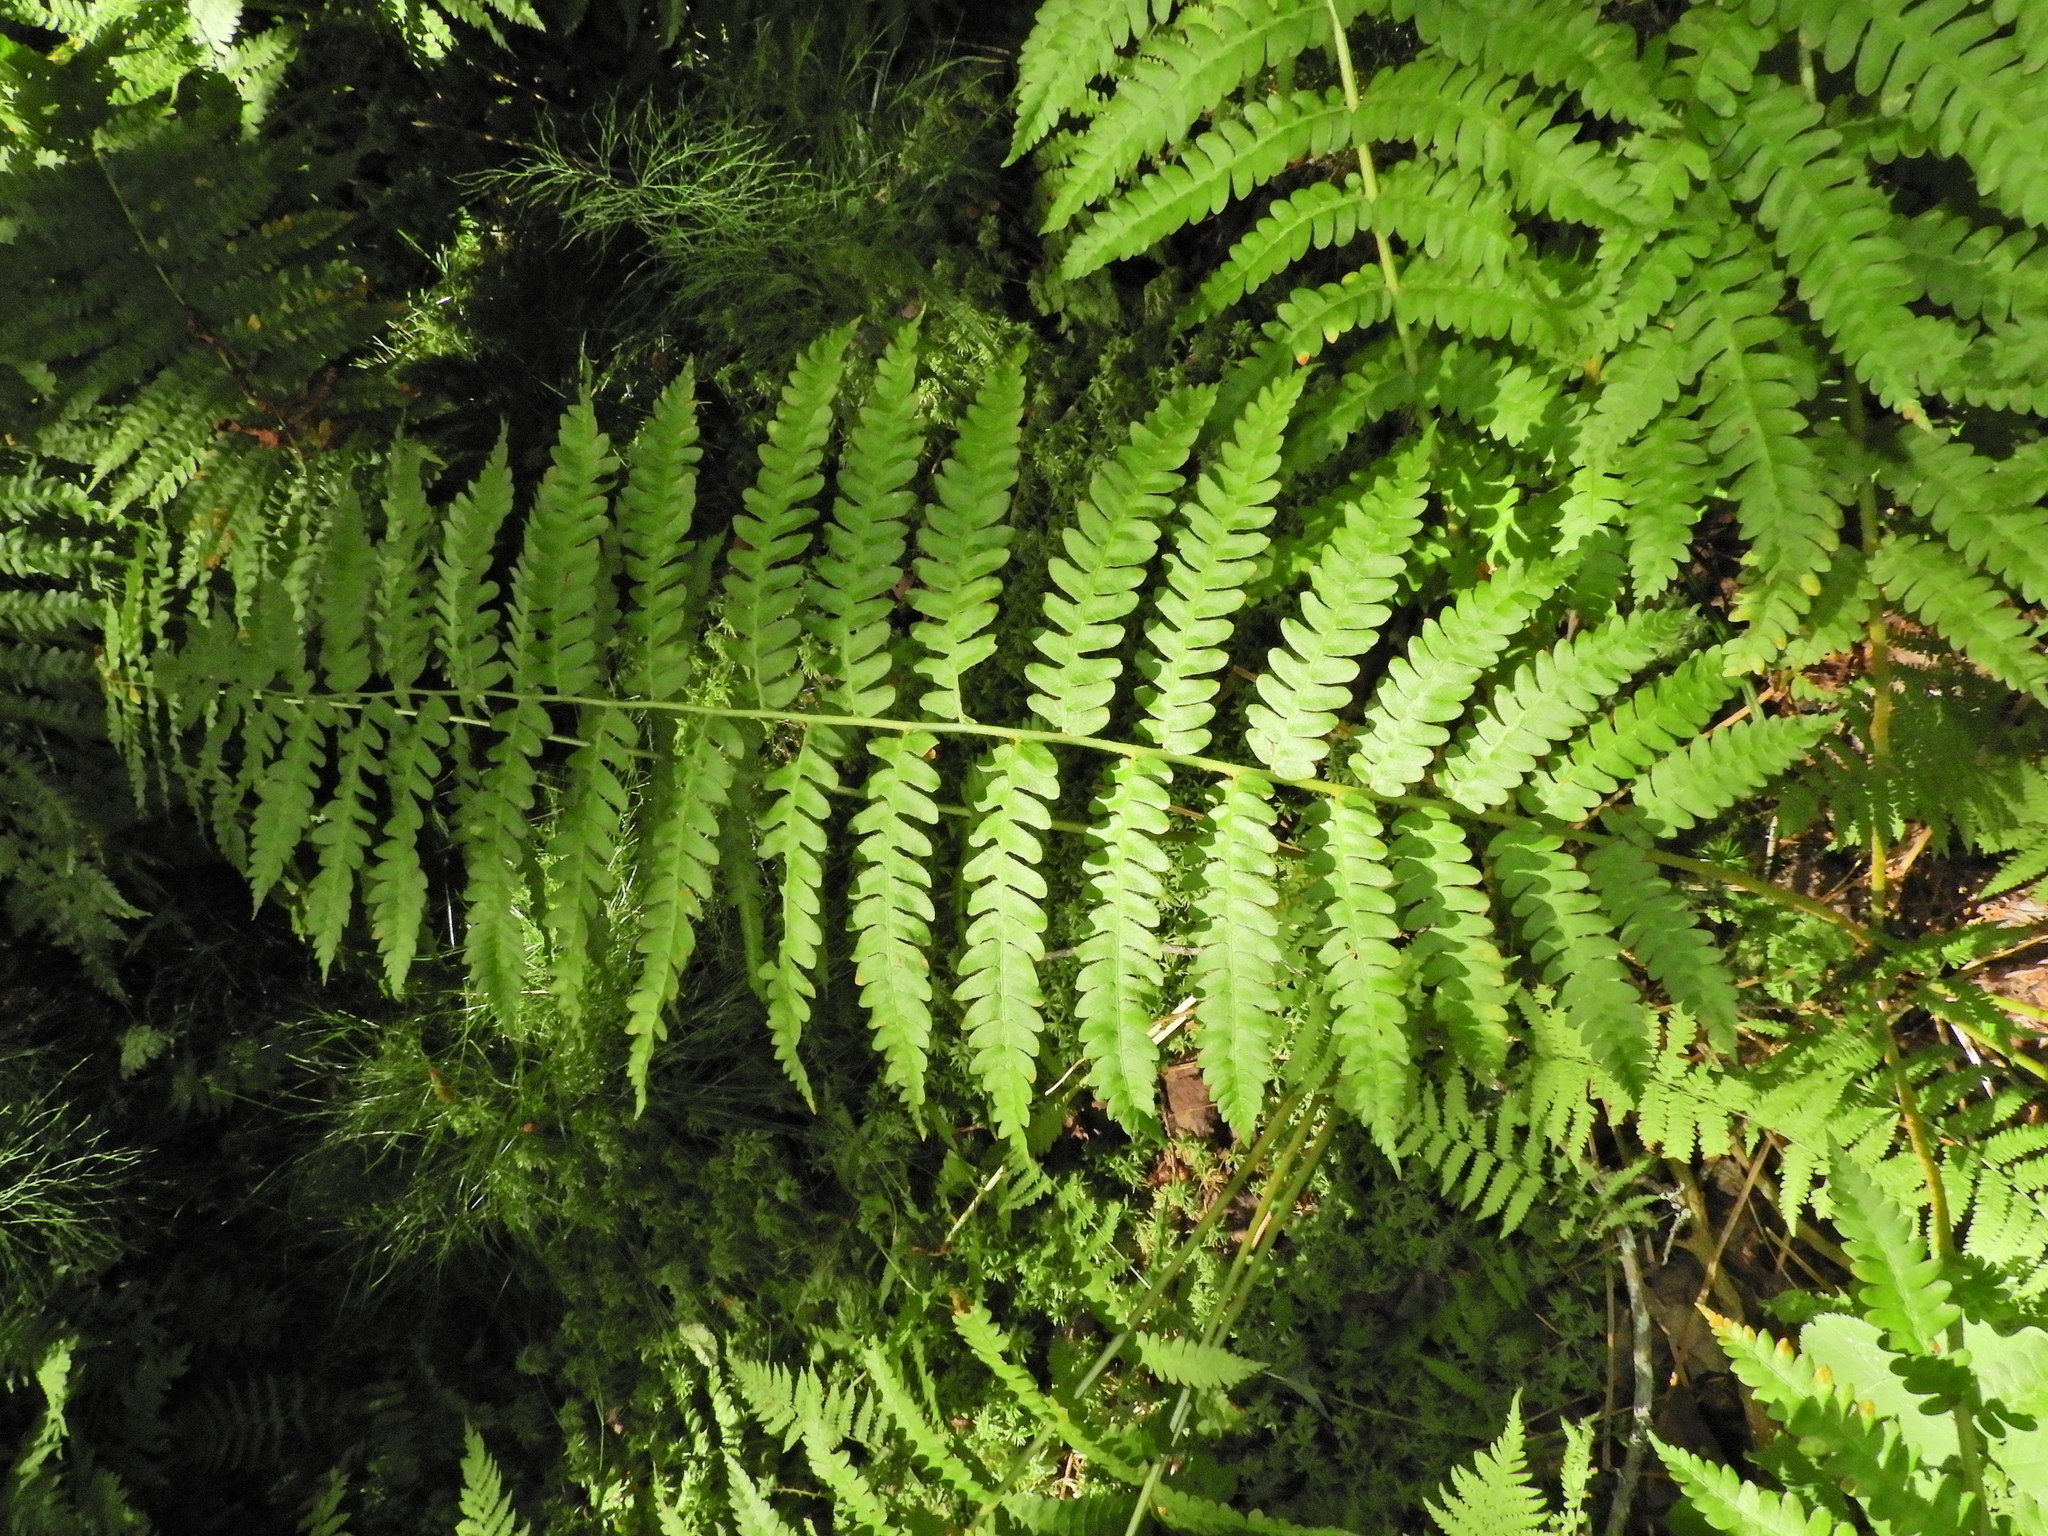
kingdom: Plantae
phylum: Tracheophyta
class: Polypodiopsida
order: Osmundales
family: Osmundaceae
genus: Osmundastrum
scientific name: Osmundastrum cinnamomeum
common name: Cinnamon fern
